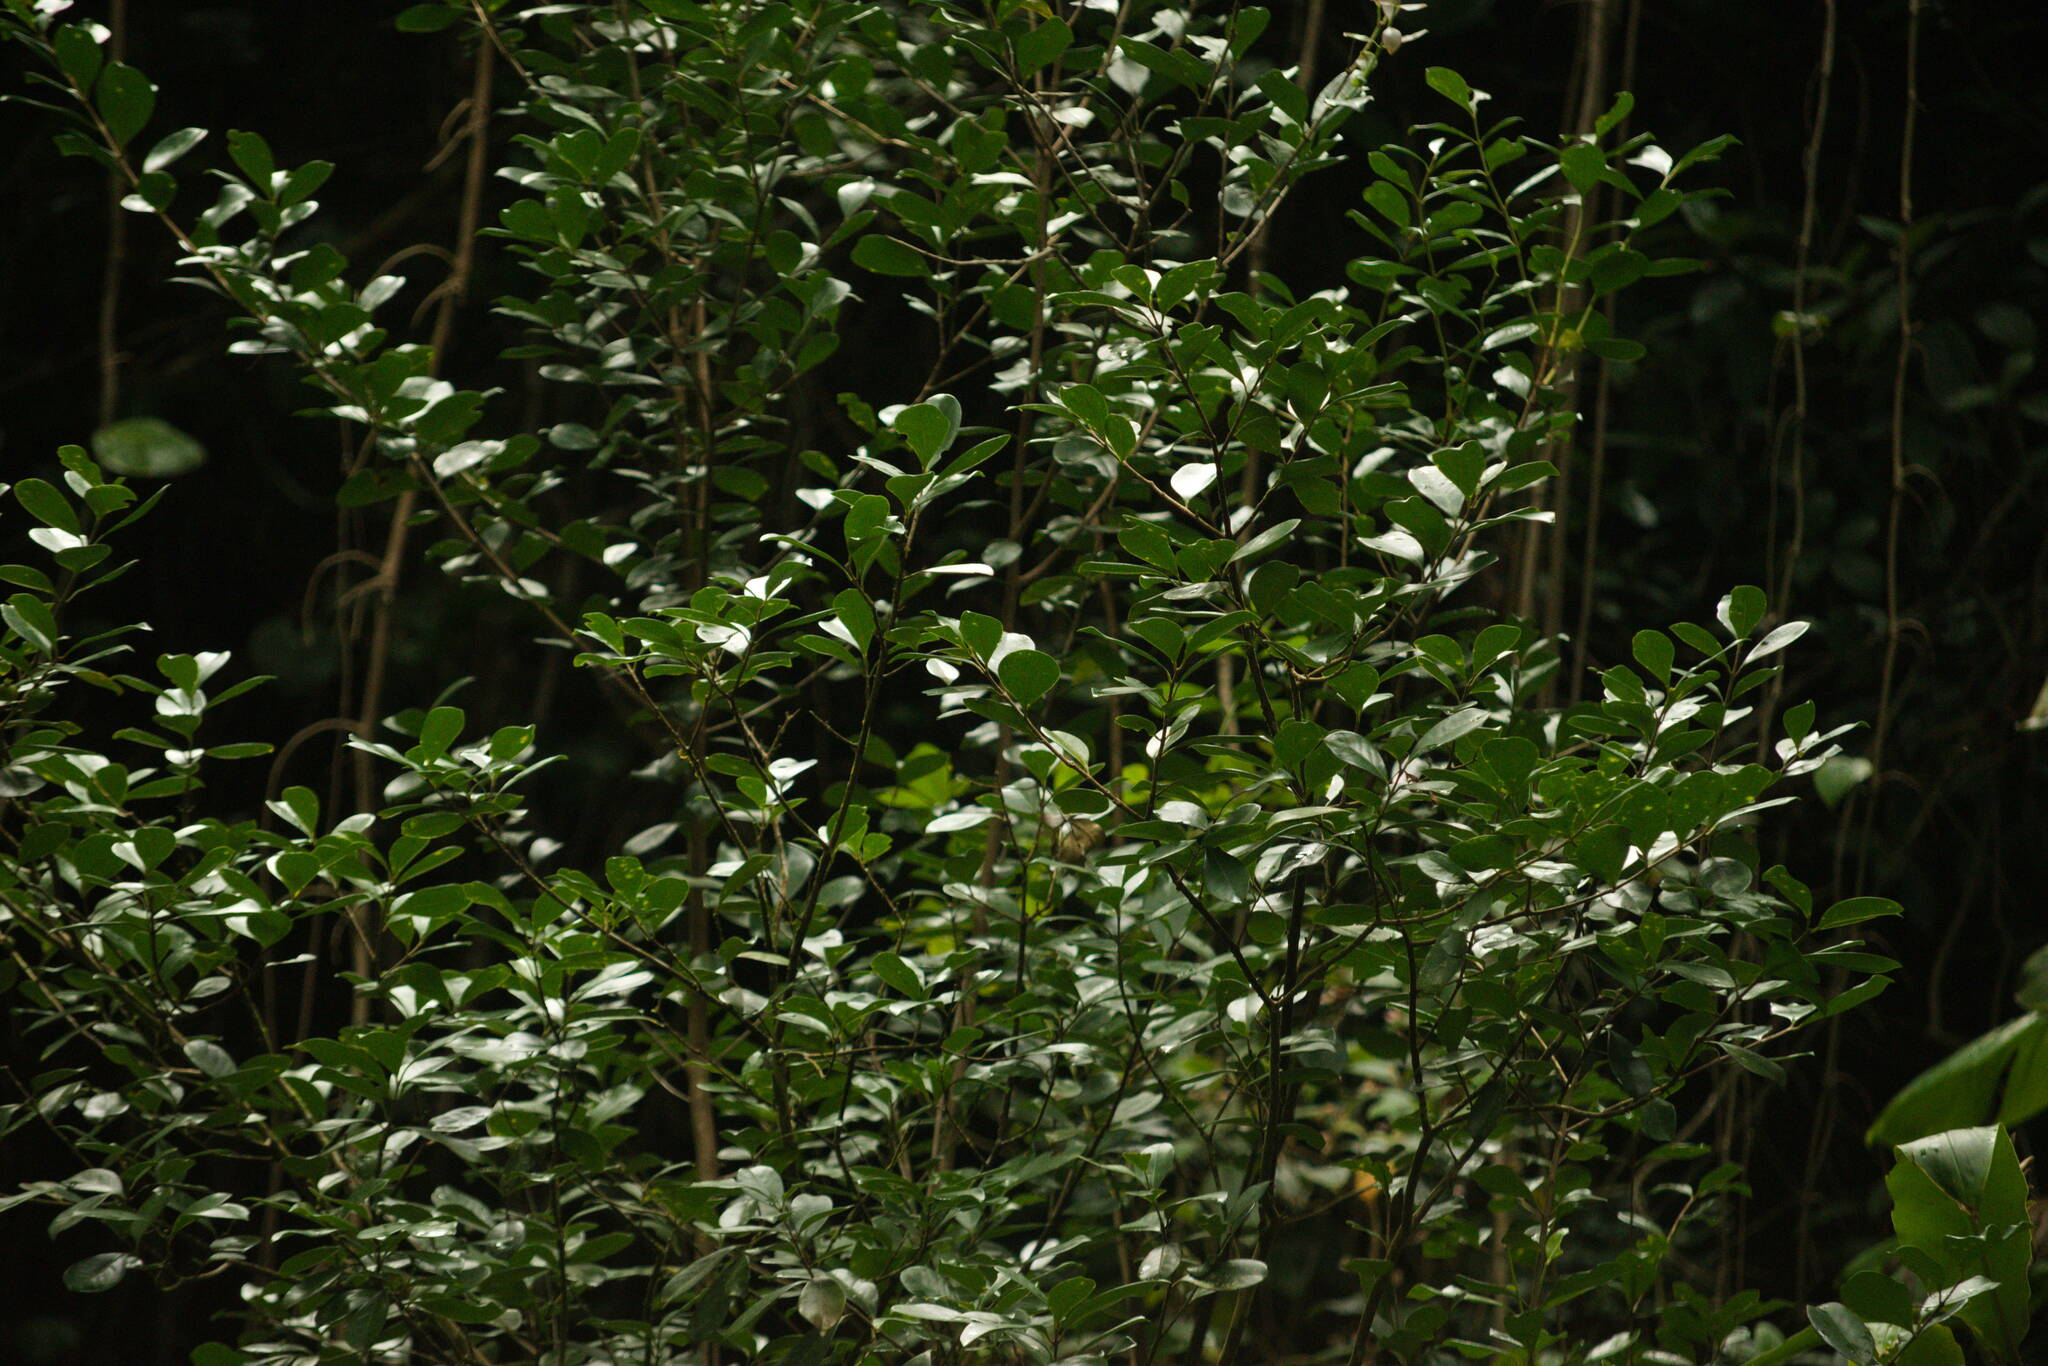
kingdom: Plantae
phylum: Tracheophyta
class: Magnoliopsida
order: Myrtales
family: Myrtaceae
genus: Psidium
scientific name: Psidium cattleianum
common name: Strawberry guava
